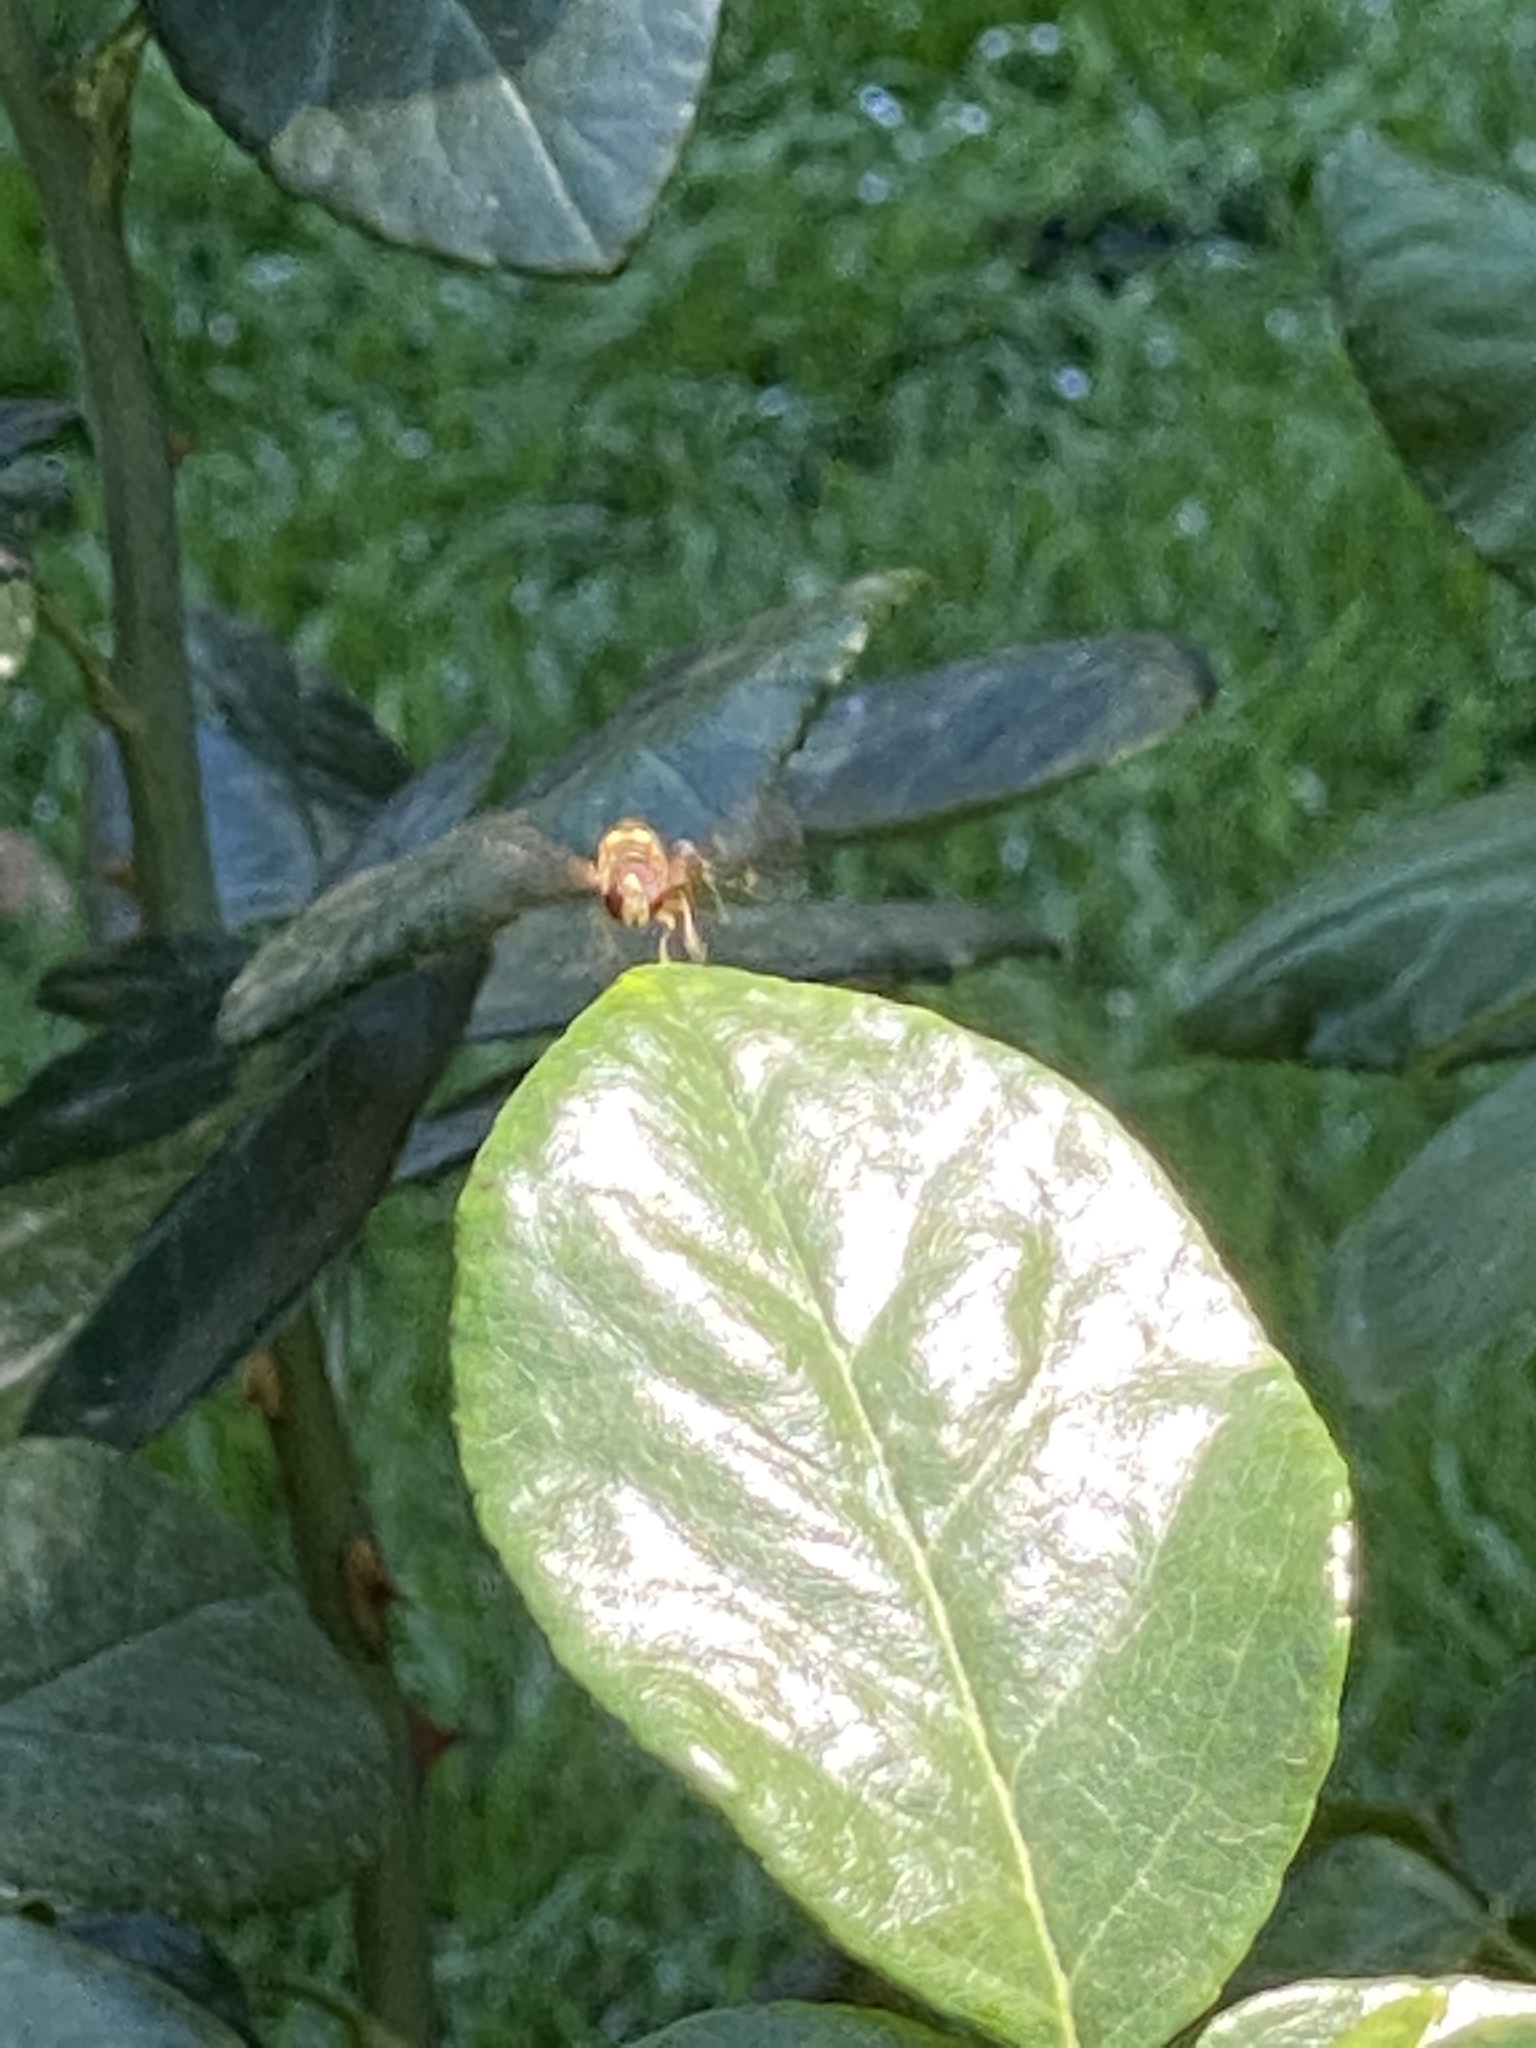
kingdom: Animalia
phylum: Arthropoda
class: Insecta
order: Diptera
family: Syrphidae
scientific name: Syrphidae
